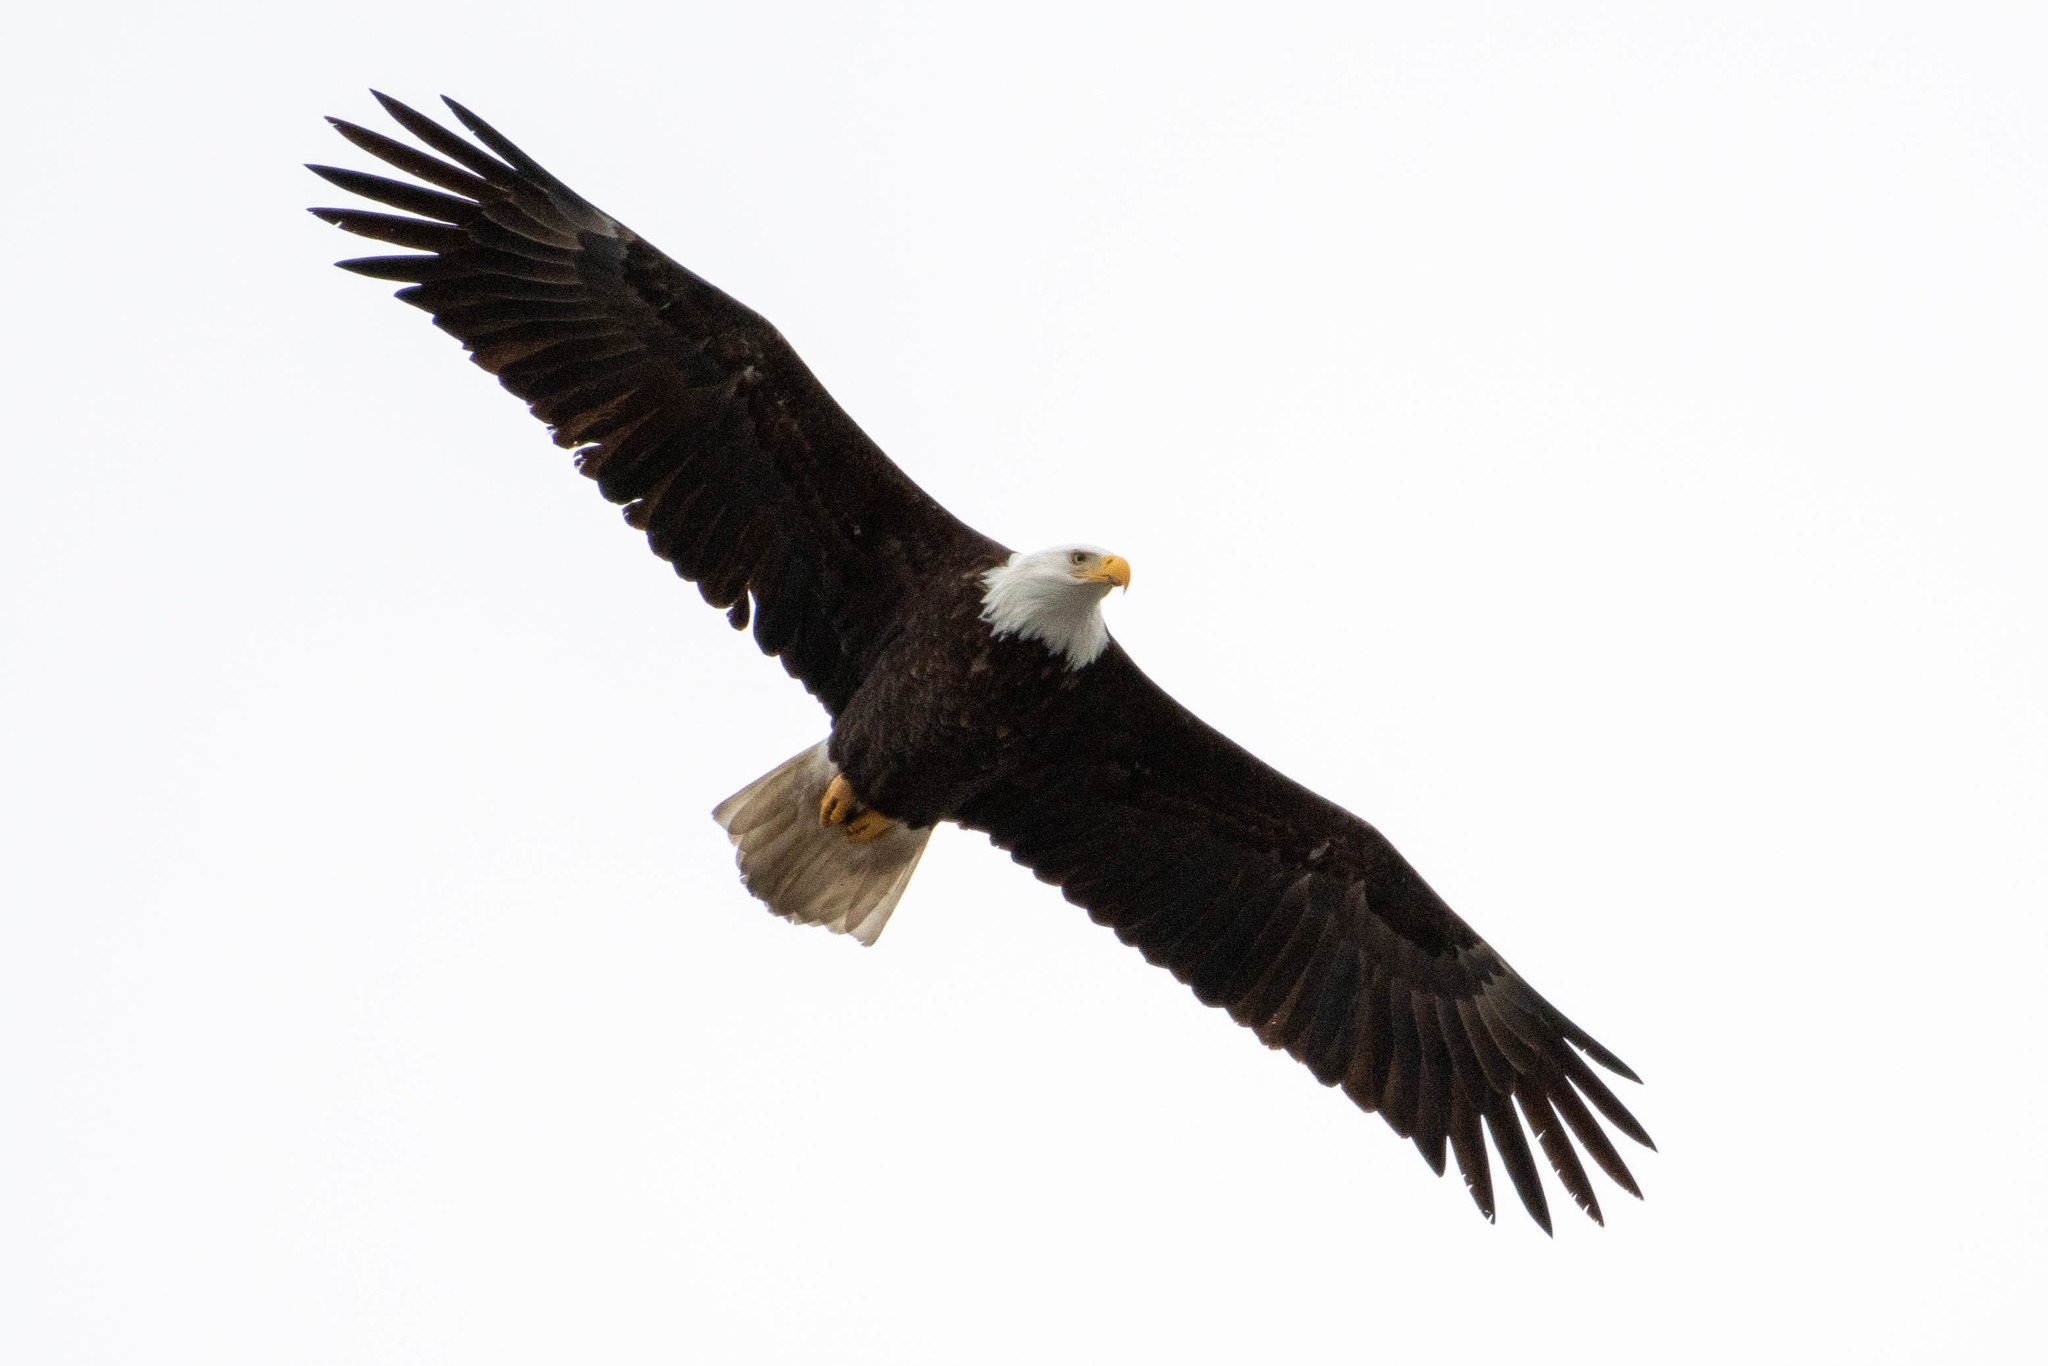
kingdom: Animalia
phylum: Chordata
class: Aves
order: Accipitriformes
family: Accipitridae
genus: Haliaeetus
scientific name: Haliaeetus leucocephalus
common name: Bald eagle
